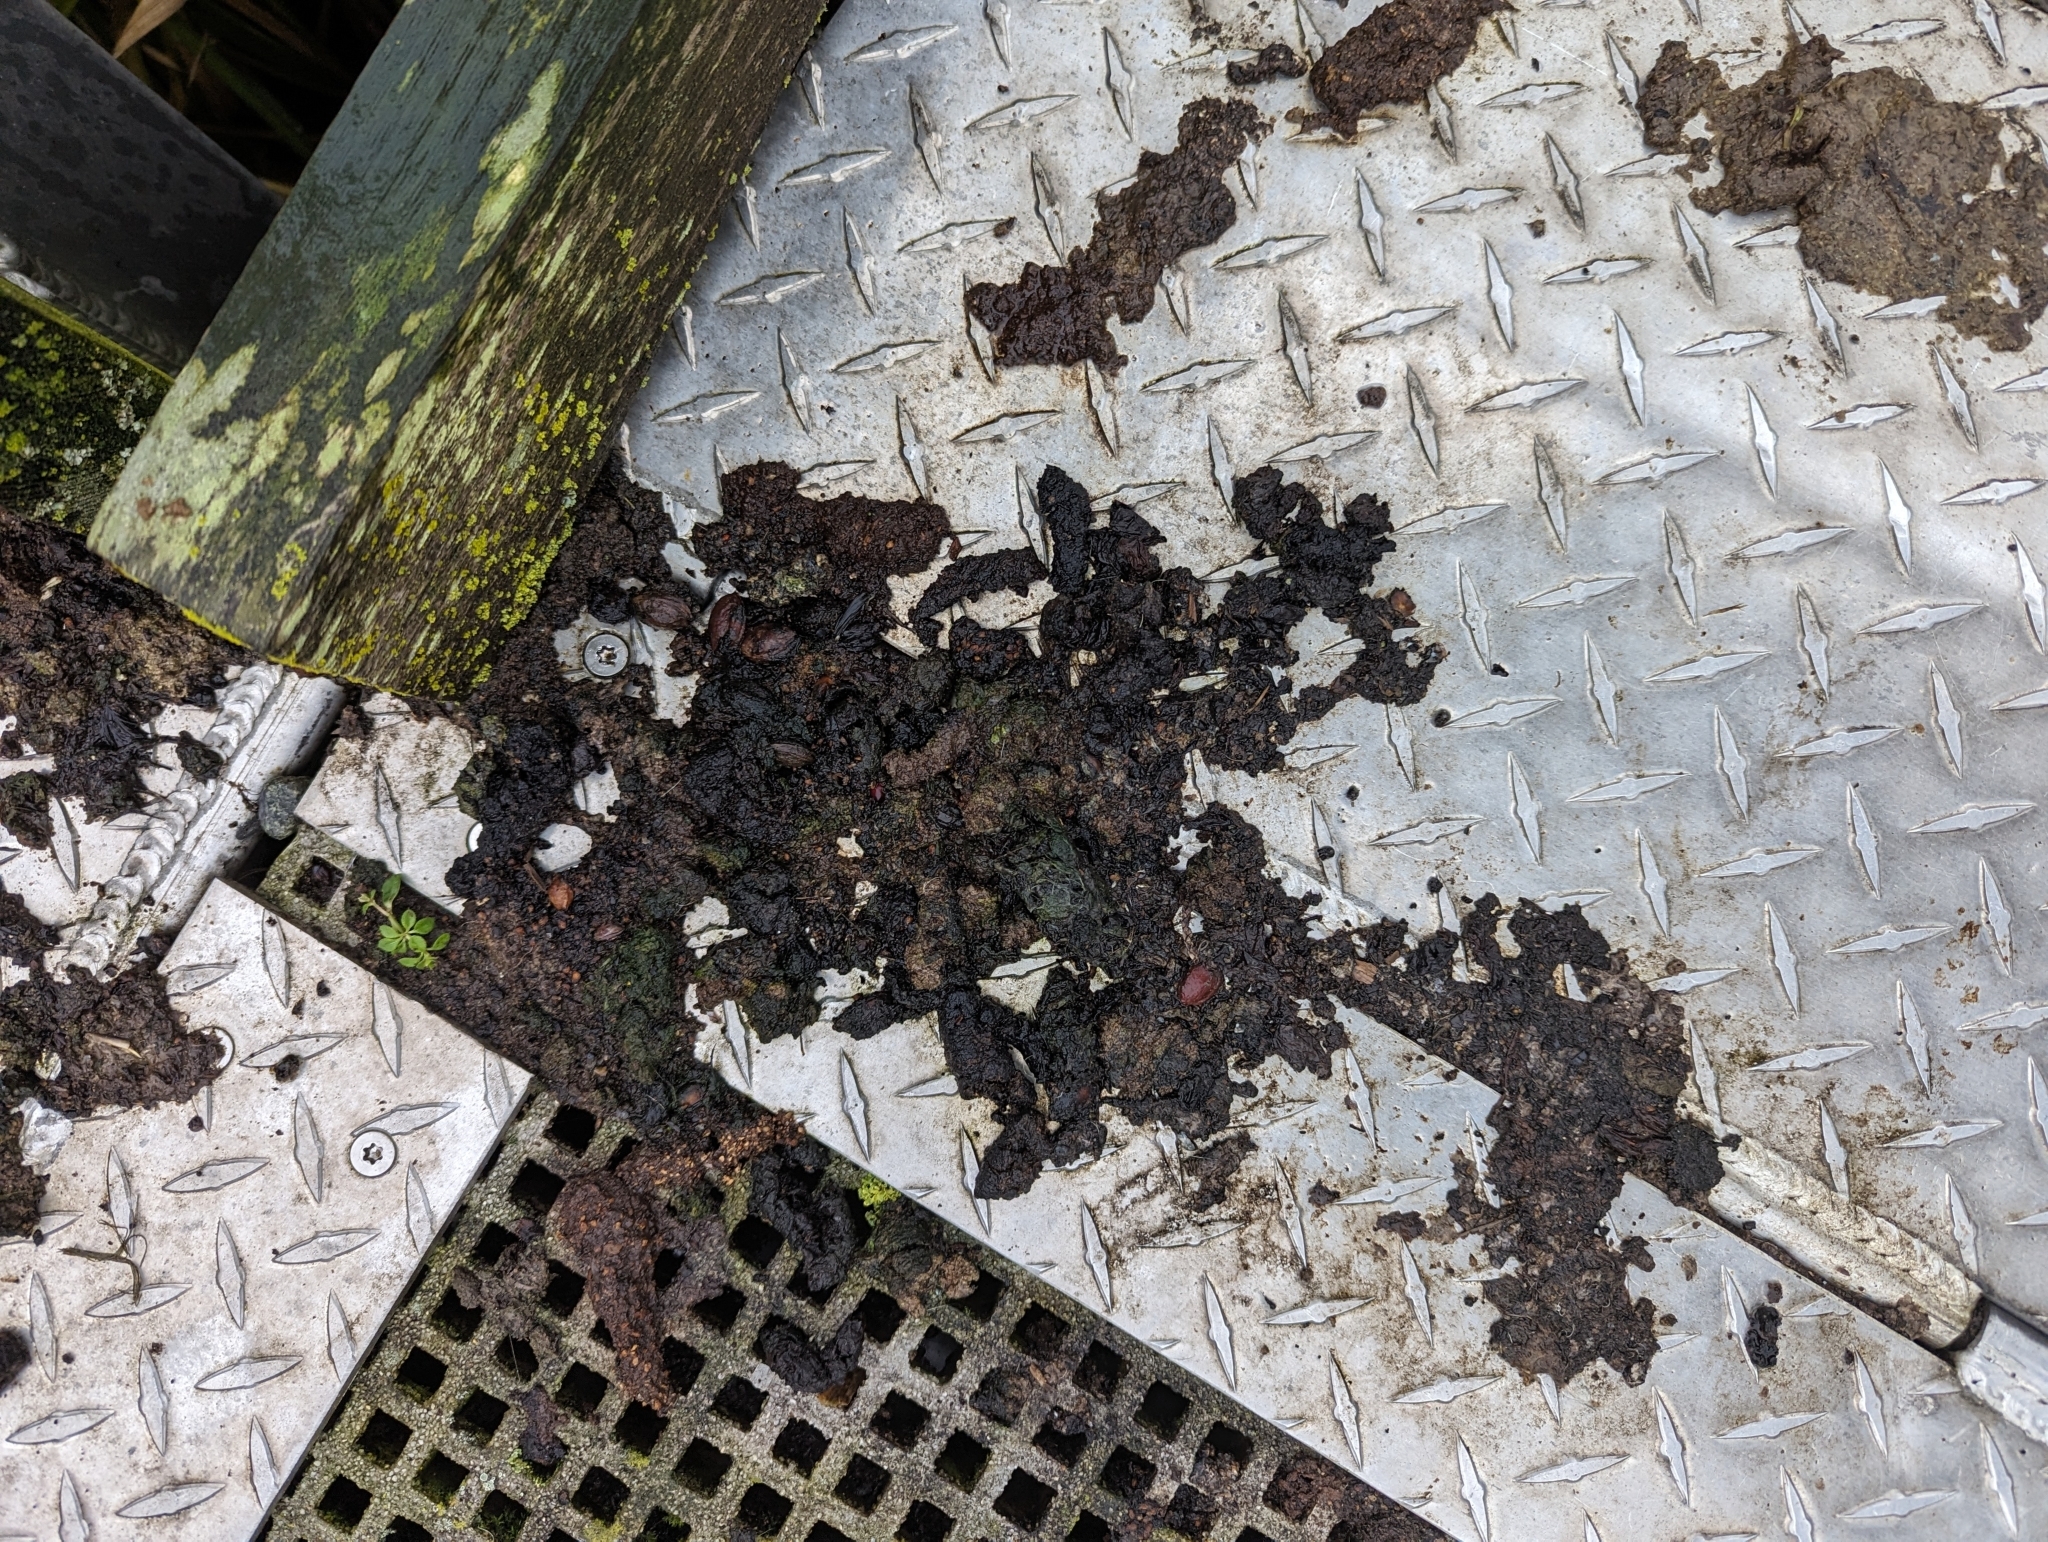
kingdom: Animalia
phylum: Chordata
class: Mammalia
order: Carnivora
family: Mustelidae
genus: Lontra
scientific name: Lontra canadensis
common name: North american river otter
